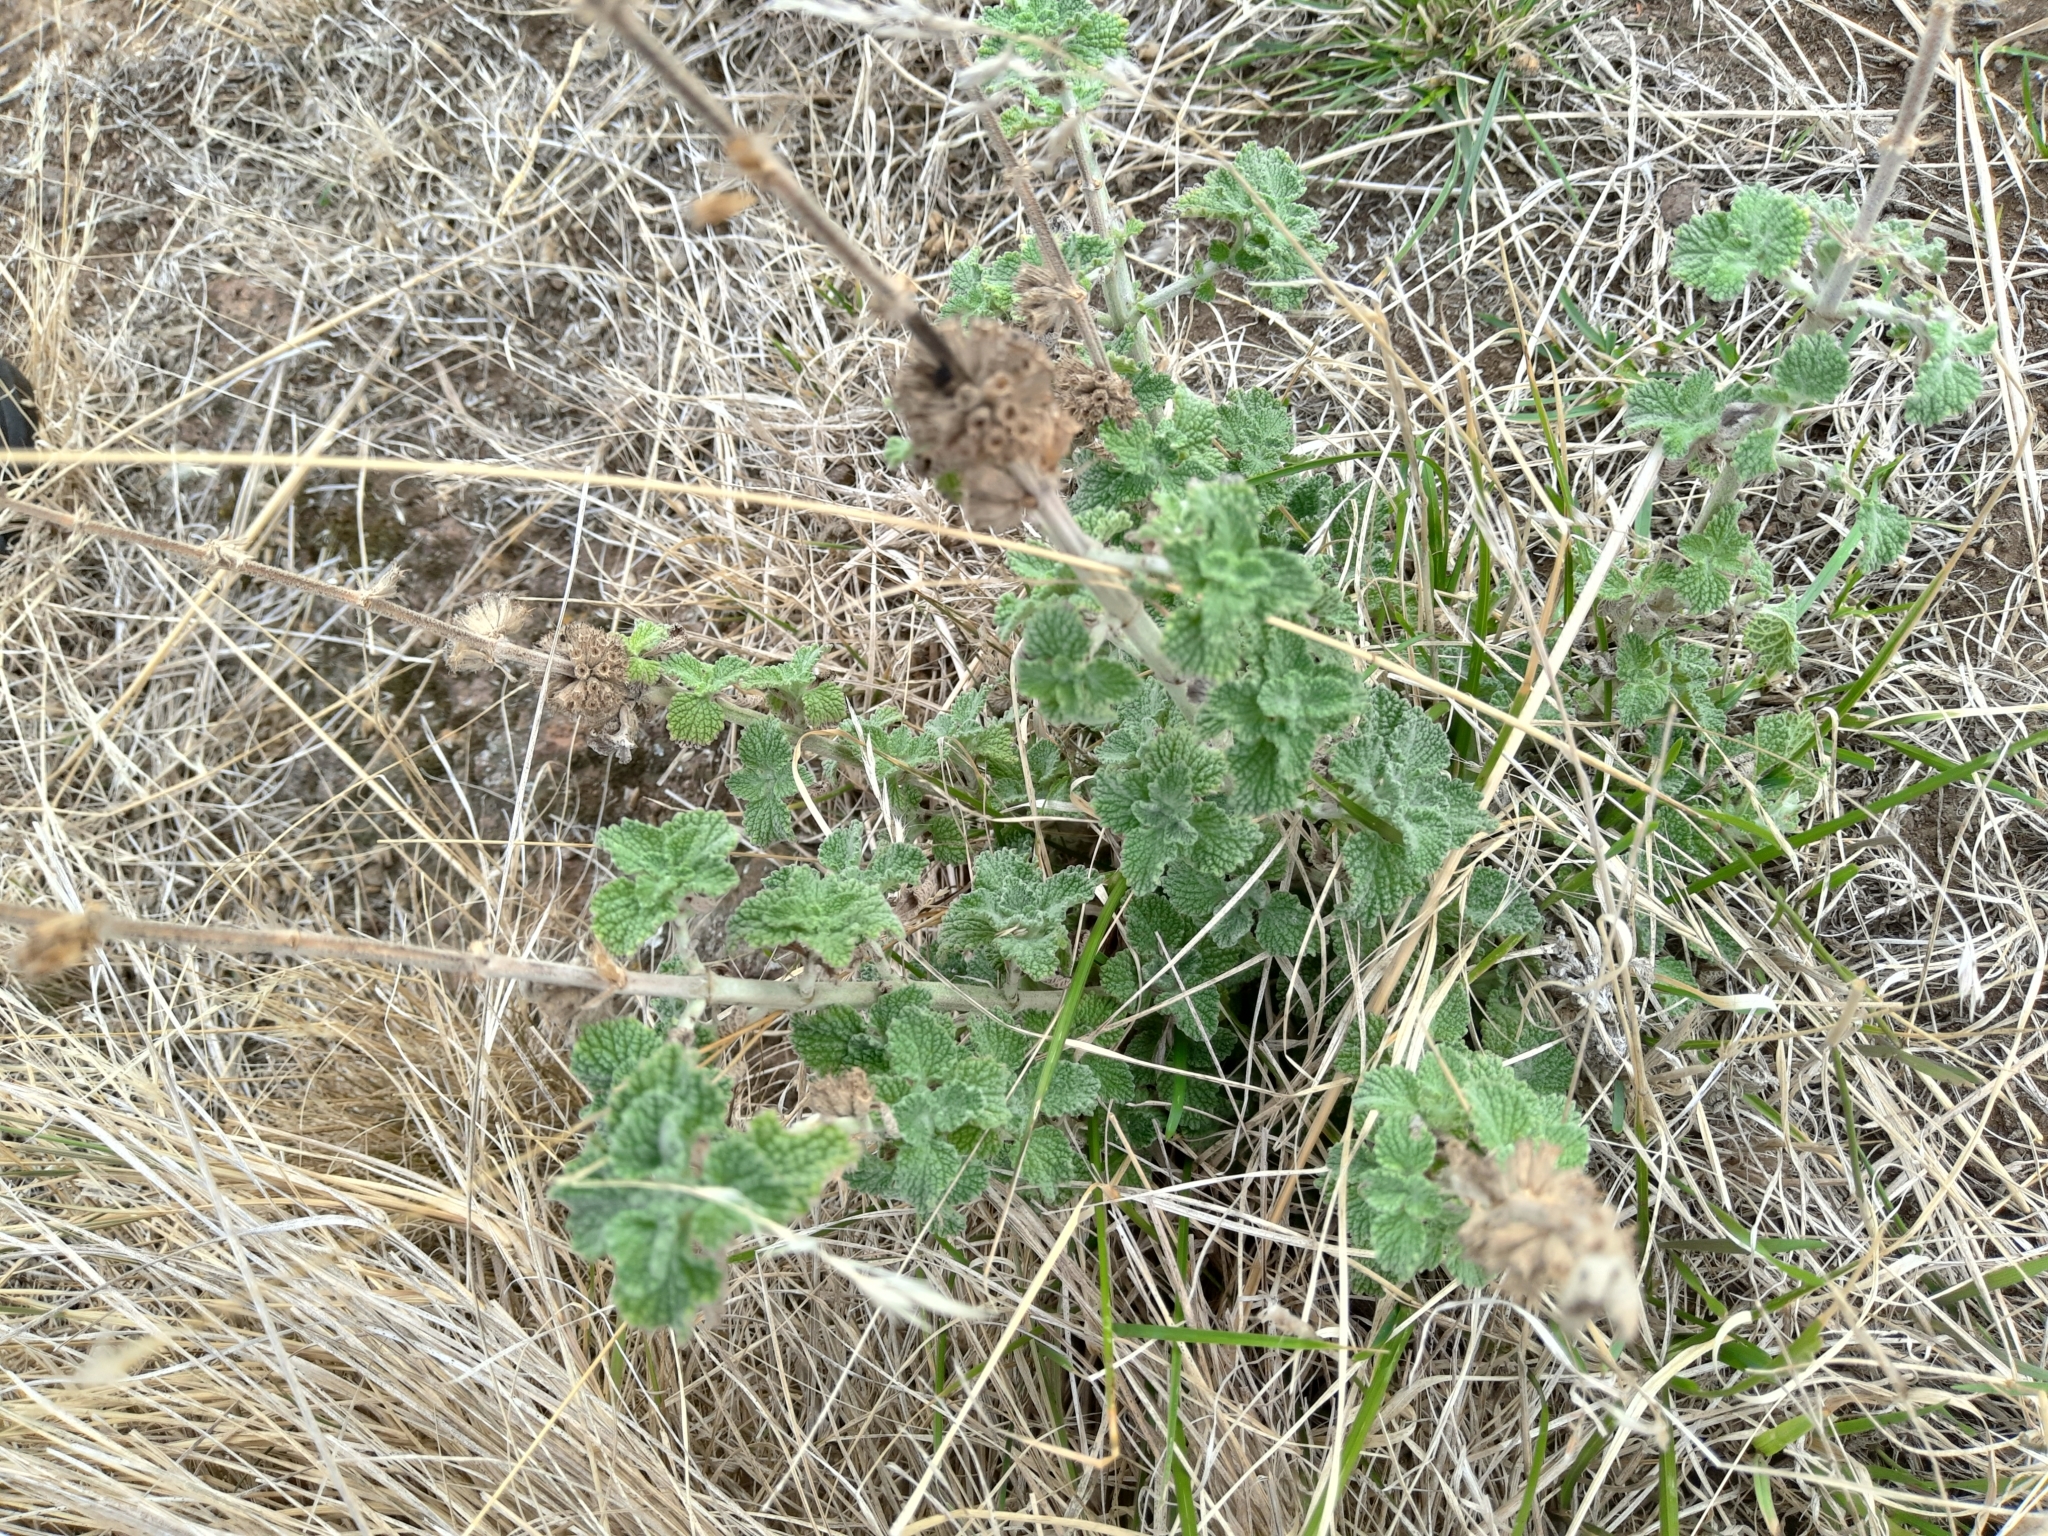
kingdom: Plantae
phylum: Tracheophyta
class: Magnoliopsida
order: Lamiales
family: Lamiaceae
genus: Marrubium
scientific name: Marrubium vulgare
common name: Horehound
